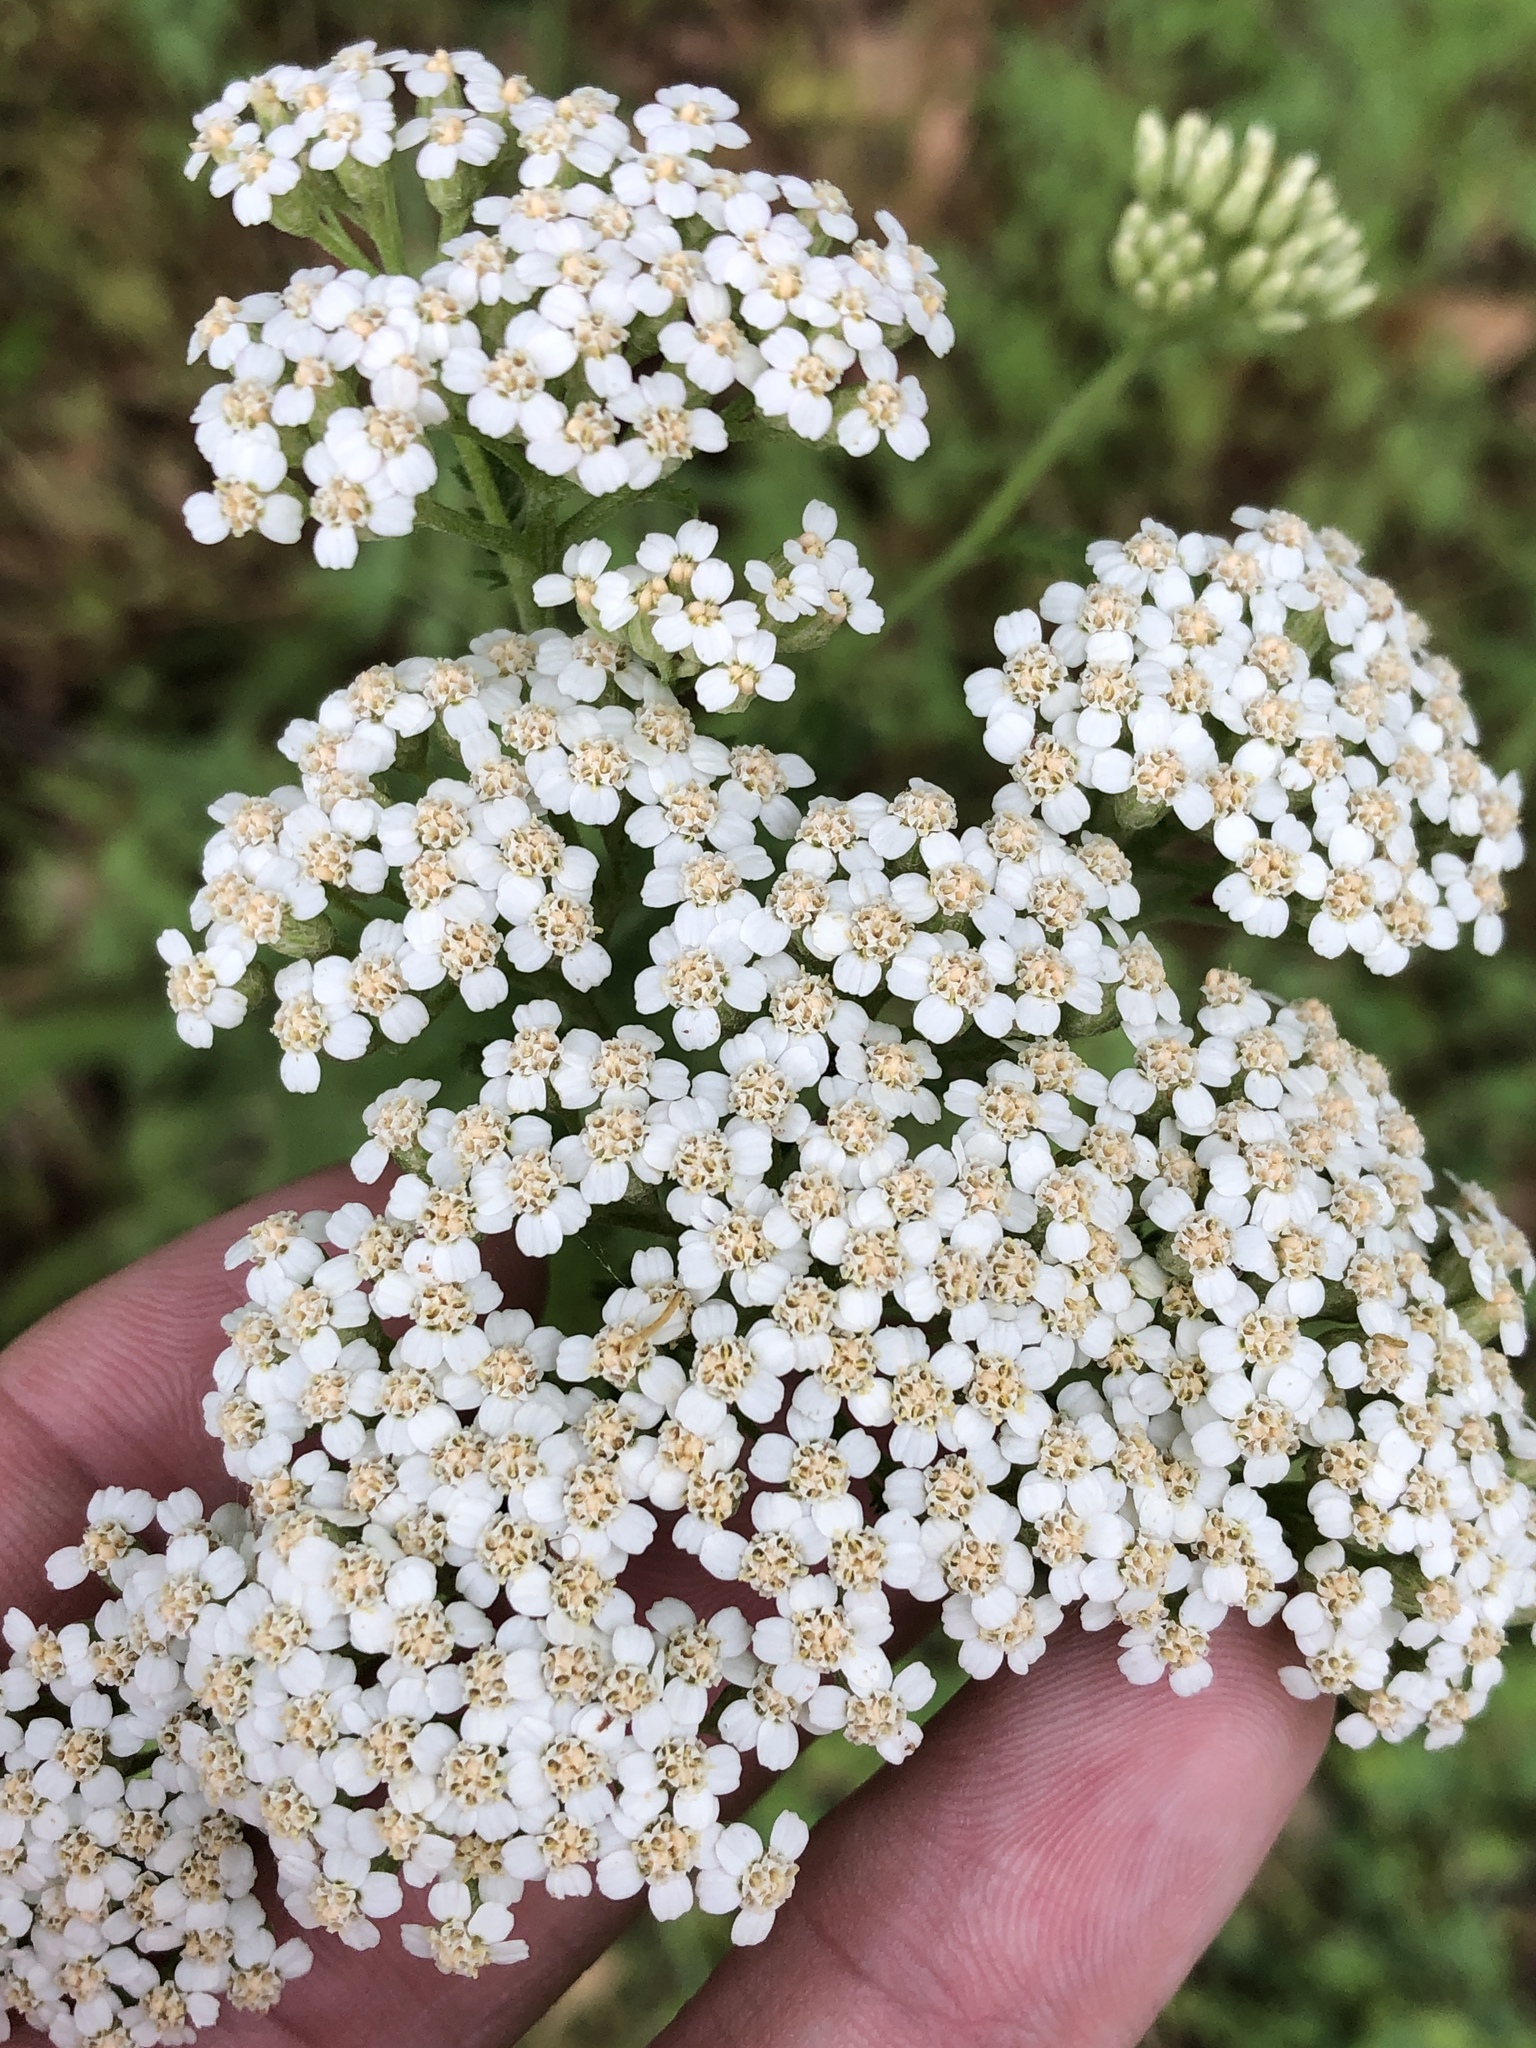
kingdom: Plantae
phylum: Tracheophyta
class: Magnoliopsida
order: Asterales
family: Asteraceae
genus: Achillea
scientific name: Achillea millefolium
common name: Yarrow
